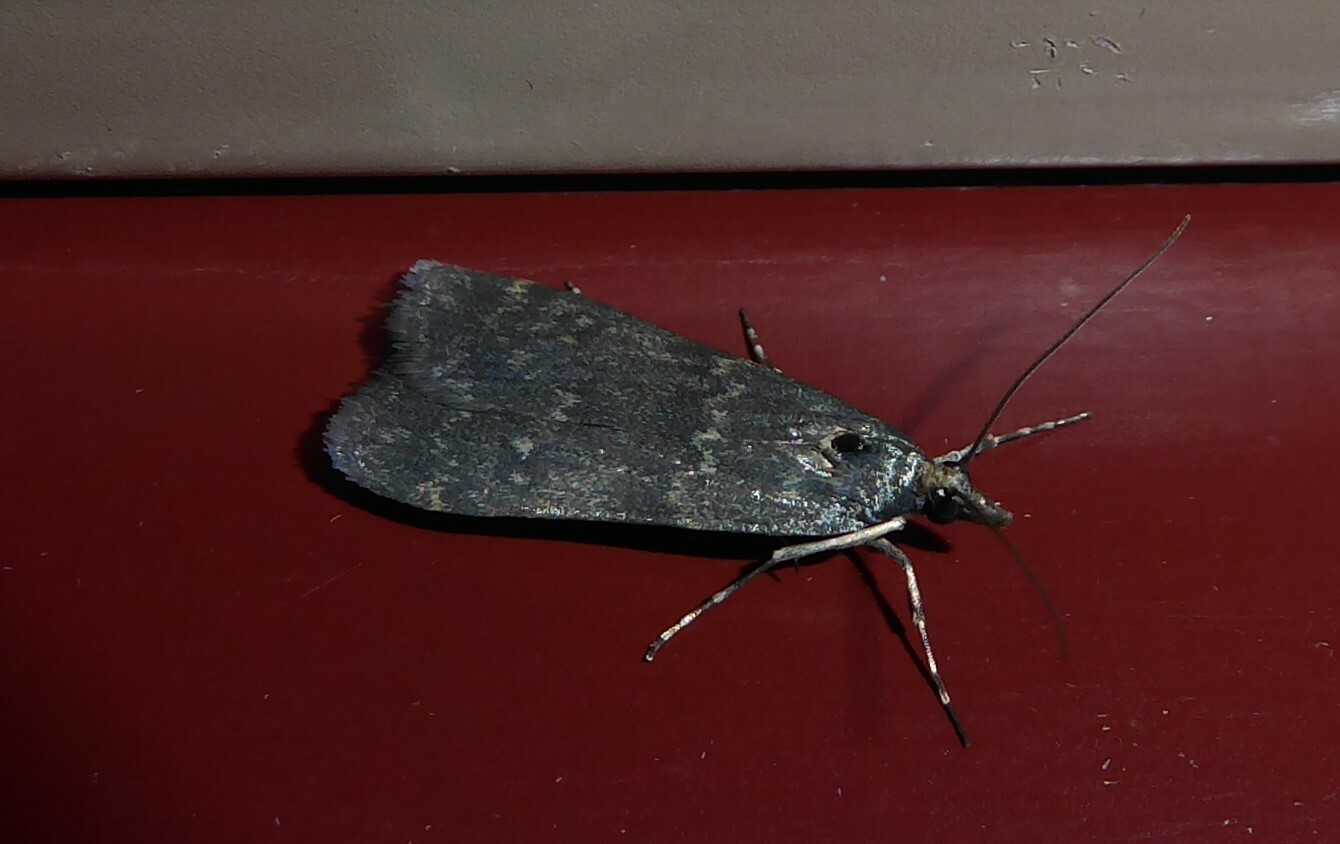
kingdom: Animalia
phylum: Arthropoda
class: Insecta
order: Lepidoptera
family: Crambidae
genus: Eudonia
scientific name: Eudonia cataxesta
